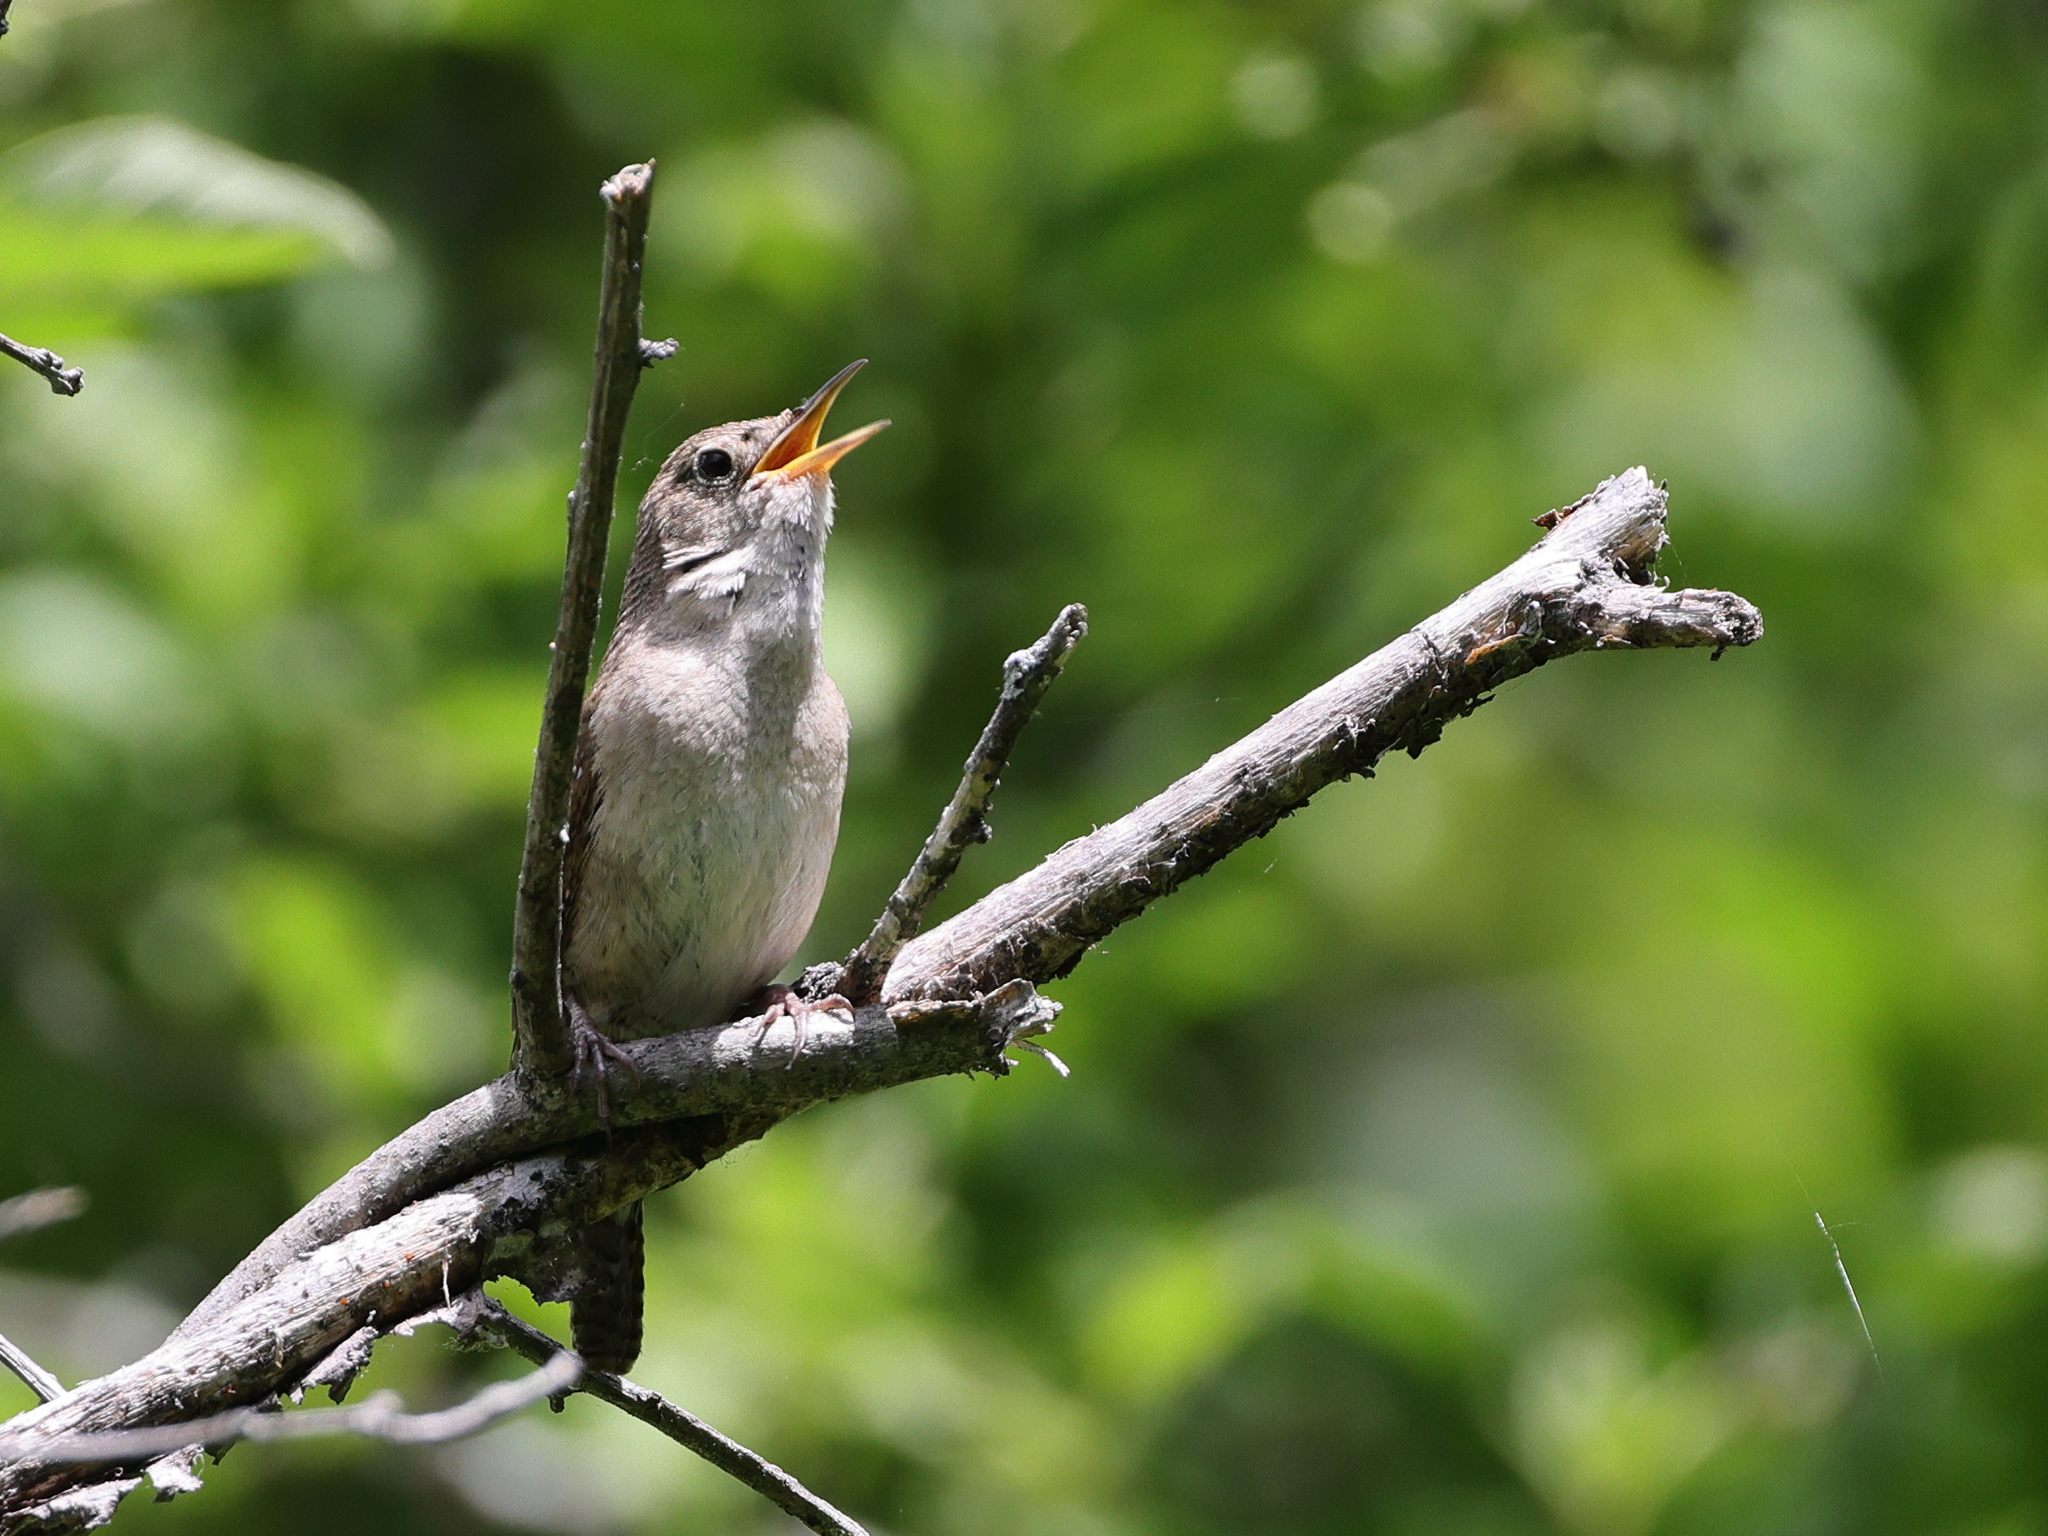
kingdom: Animalia
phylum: Chordata
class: Aves
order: Passeriformes
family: Troglodytidae
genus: Troglodytes
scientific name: Troglodytes aedon
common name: House wren
